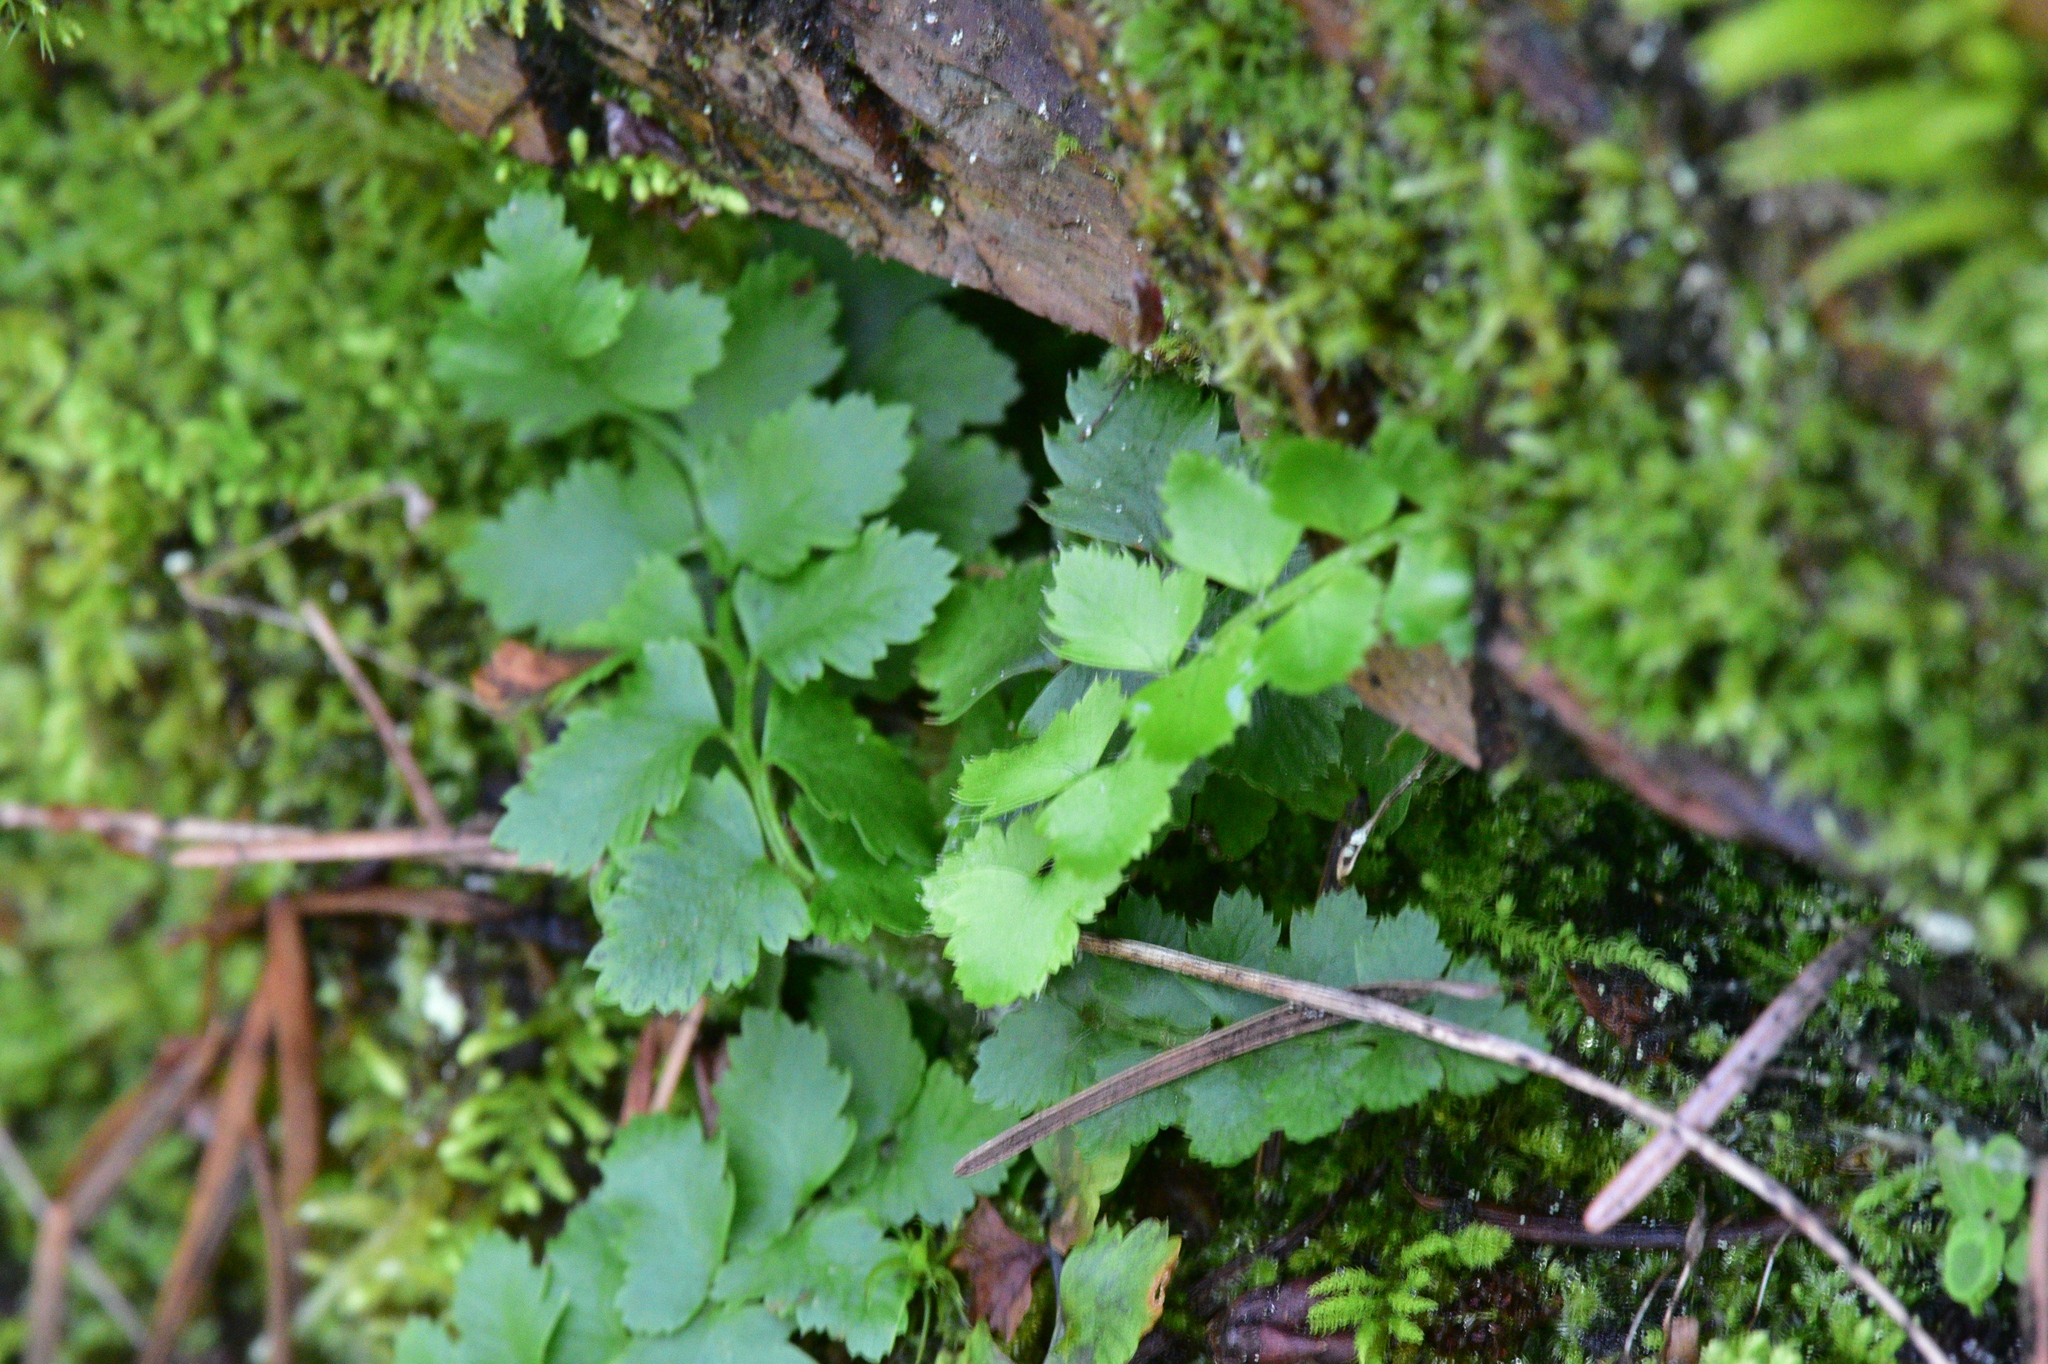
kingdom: Plantae
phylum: Tracheophyta
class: Polypodiopsida
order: Polypodiales
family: Dryopteridaceae
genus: Polystichum
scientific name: Polystichum munitum
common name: Western sword-fern
